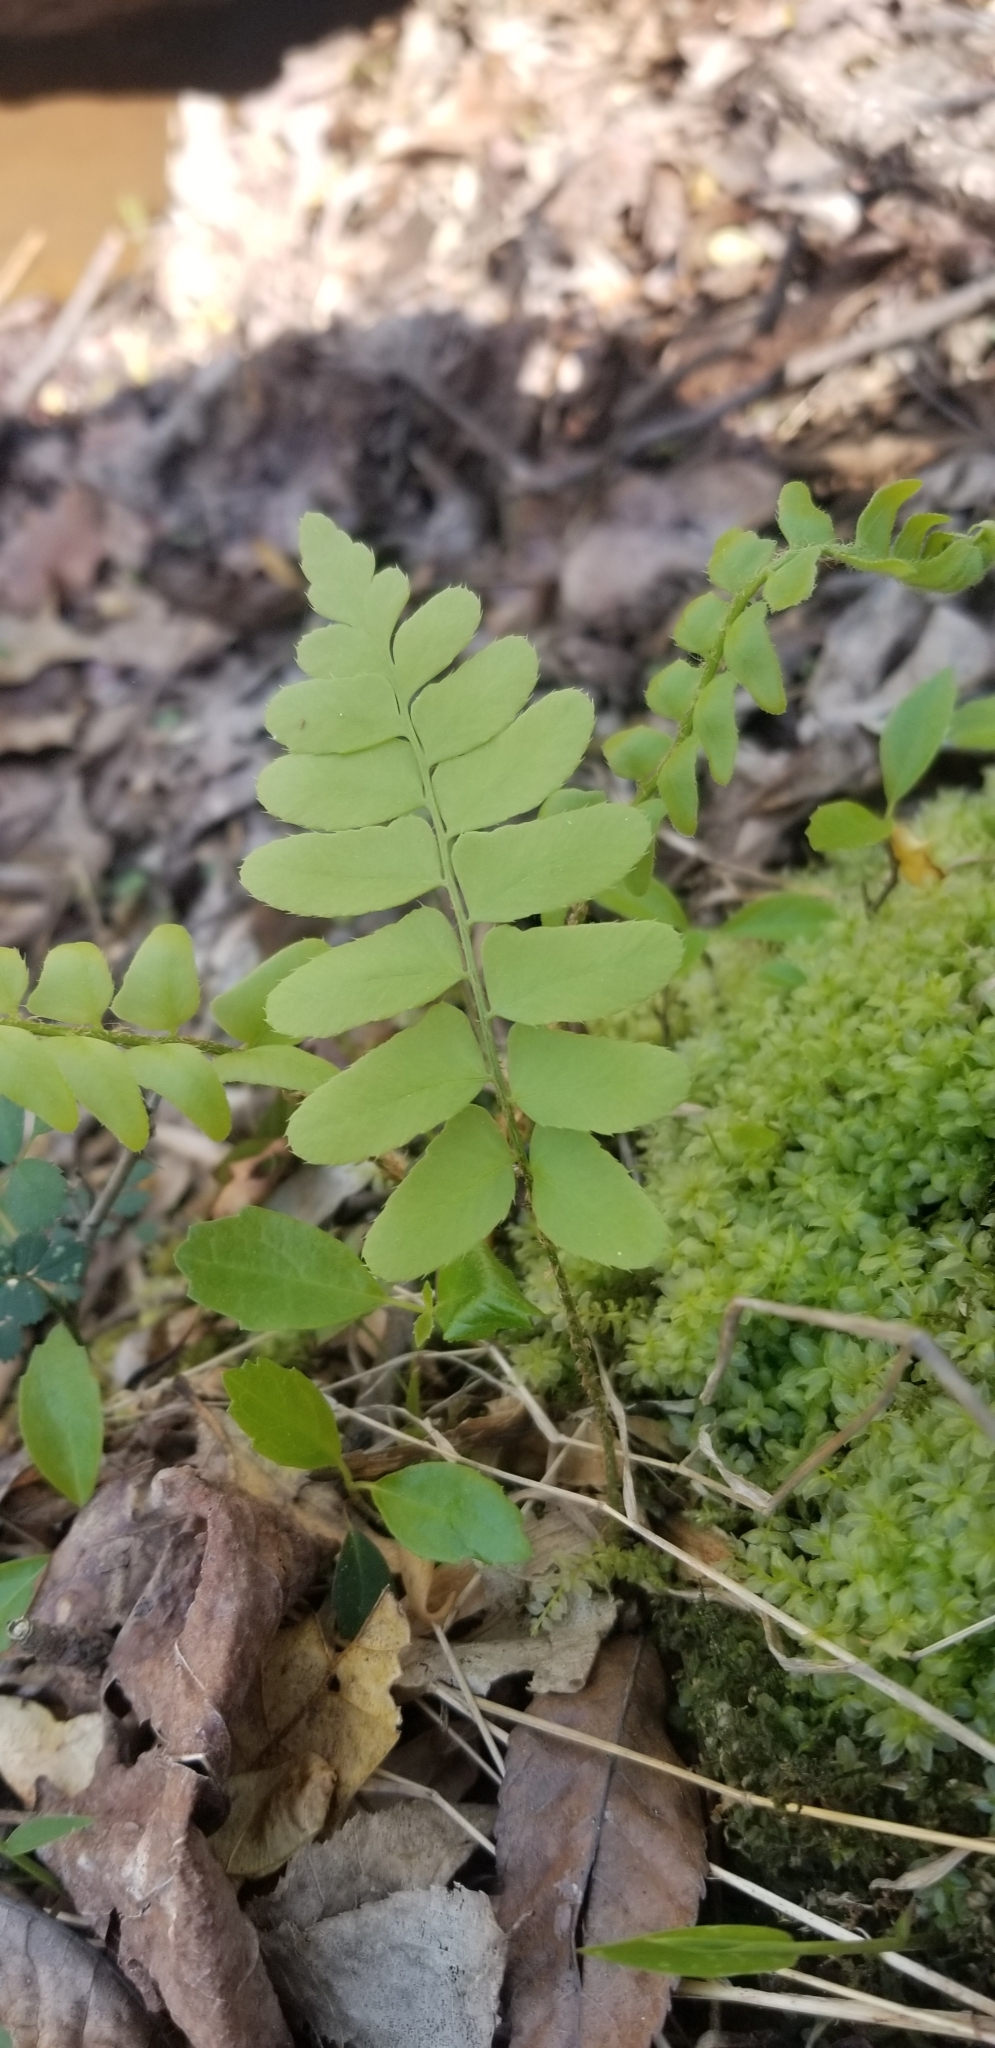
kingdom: Plantae
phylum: Tracheophyta
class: Polypodiopsida
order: Polypodiales
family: Dryopteridaceae
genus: Polystichum
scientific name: Polystichum acrostichoides
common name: Christmas fern
